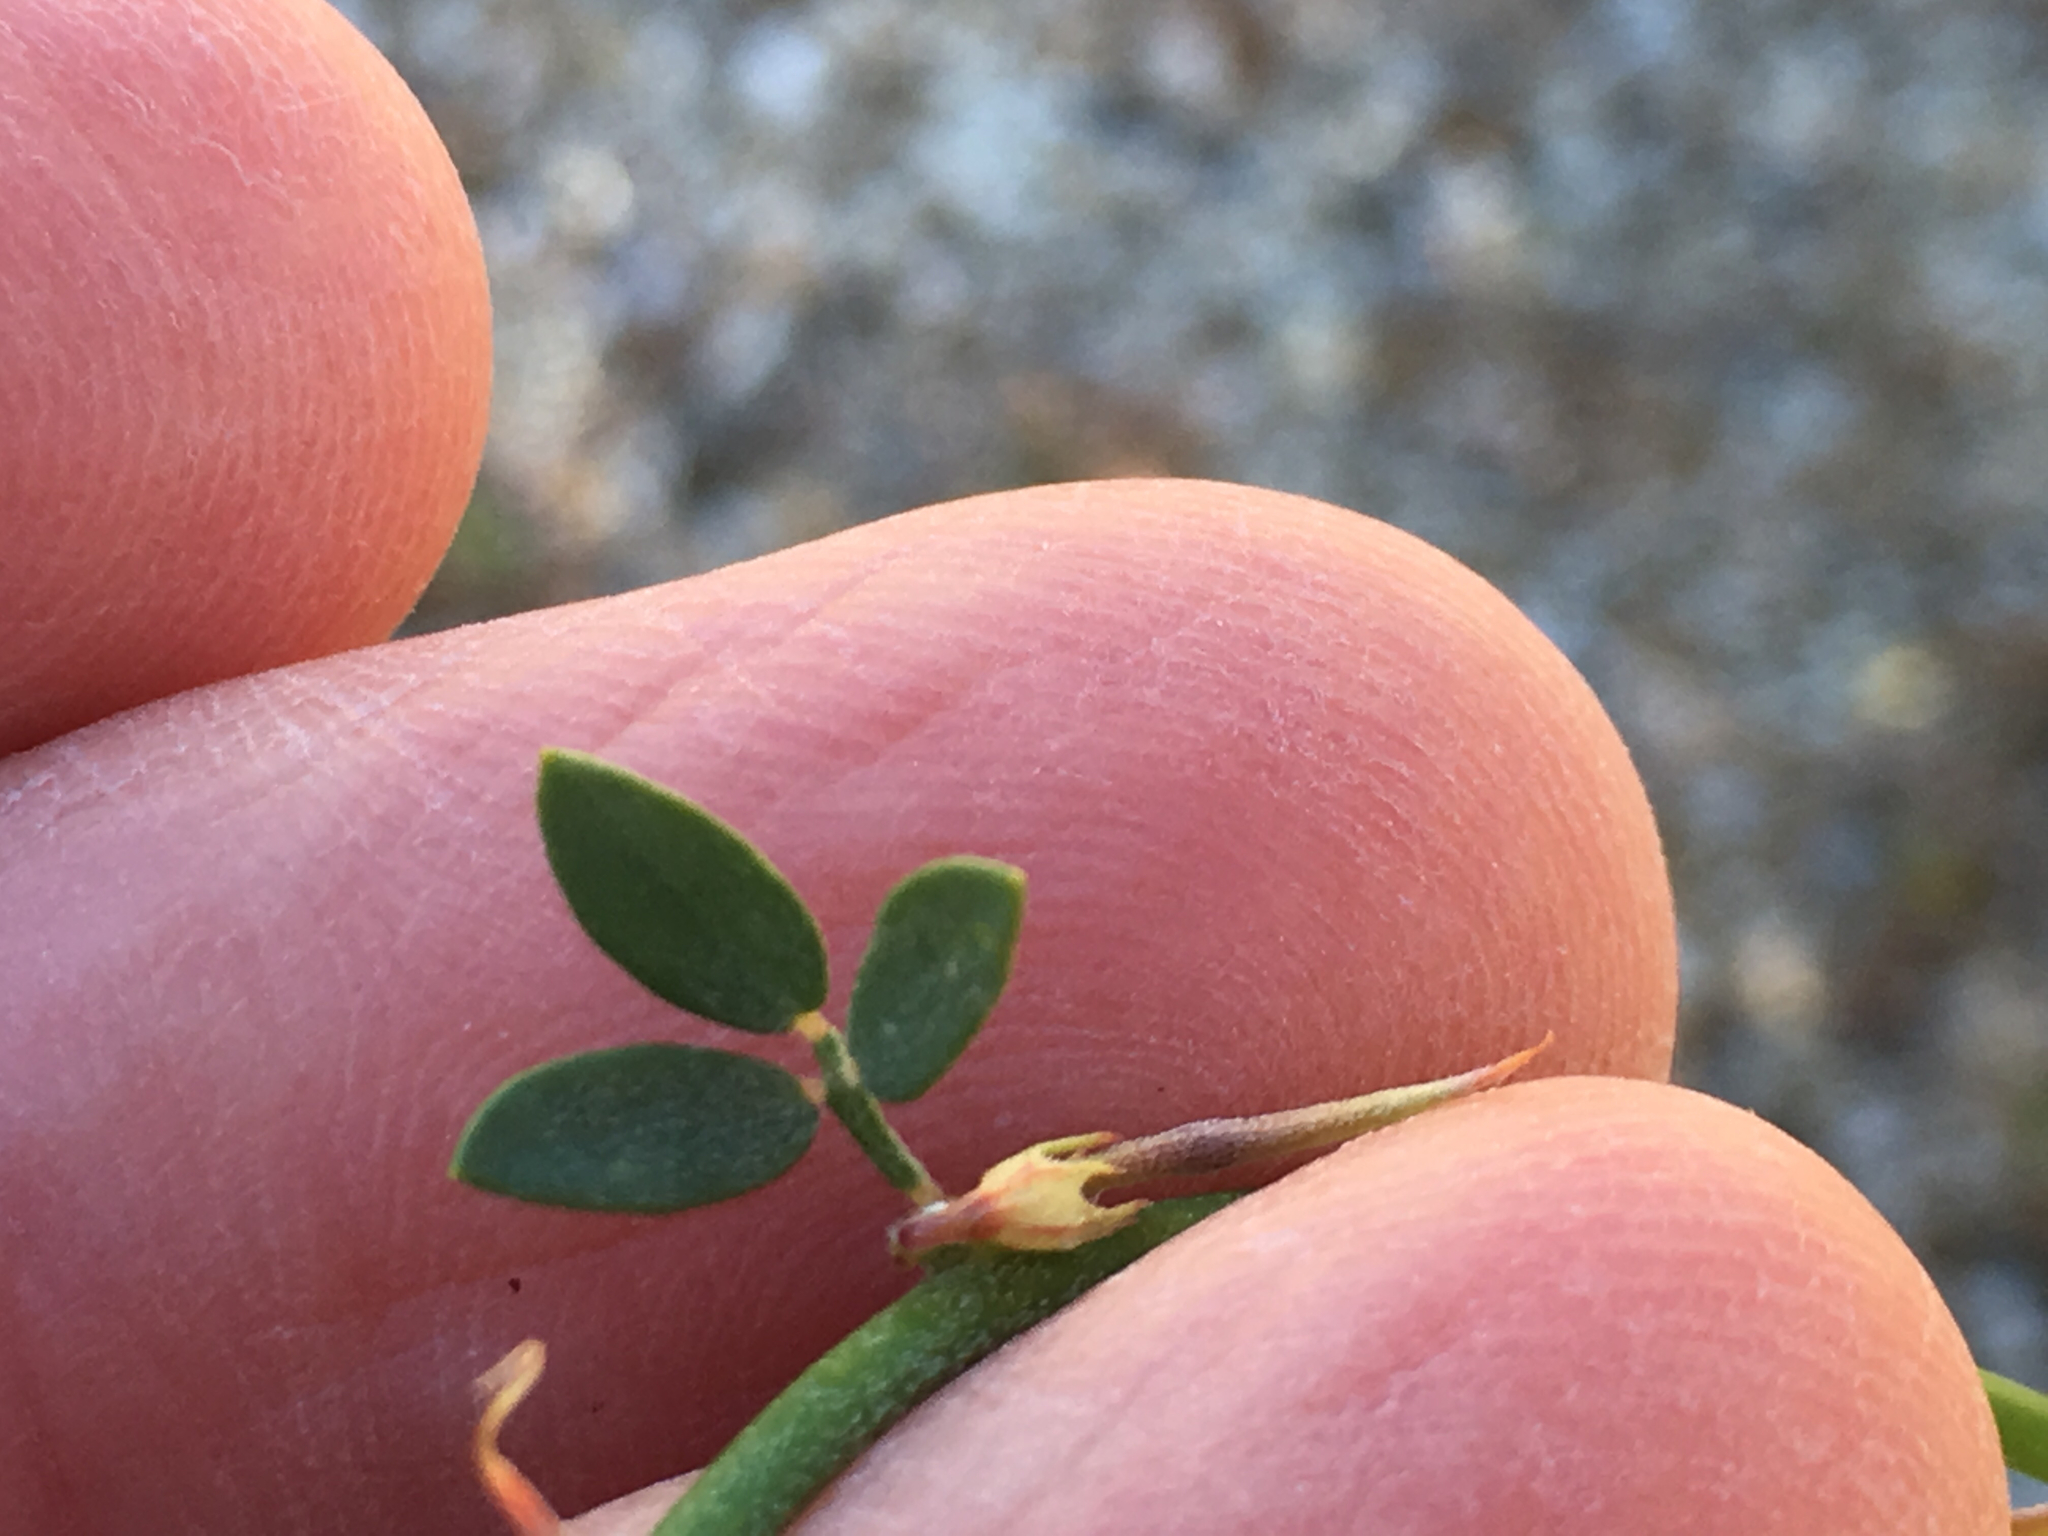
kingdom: Plantae
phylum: Tracheophyta
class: Magnoliopsida
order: Fabales
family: Fabaceae
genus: Acmispon
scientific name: Acmispon glaber
